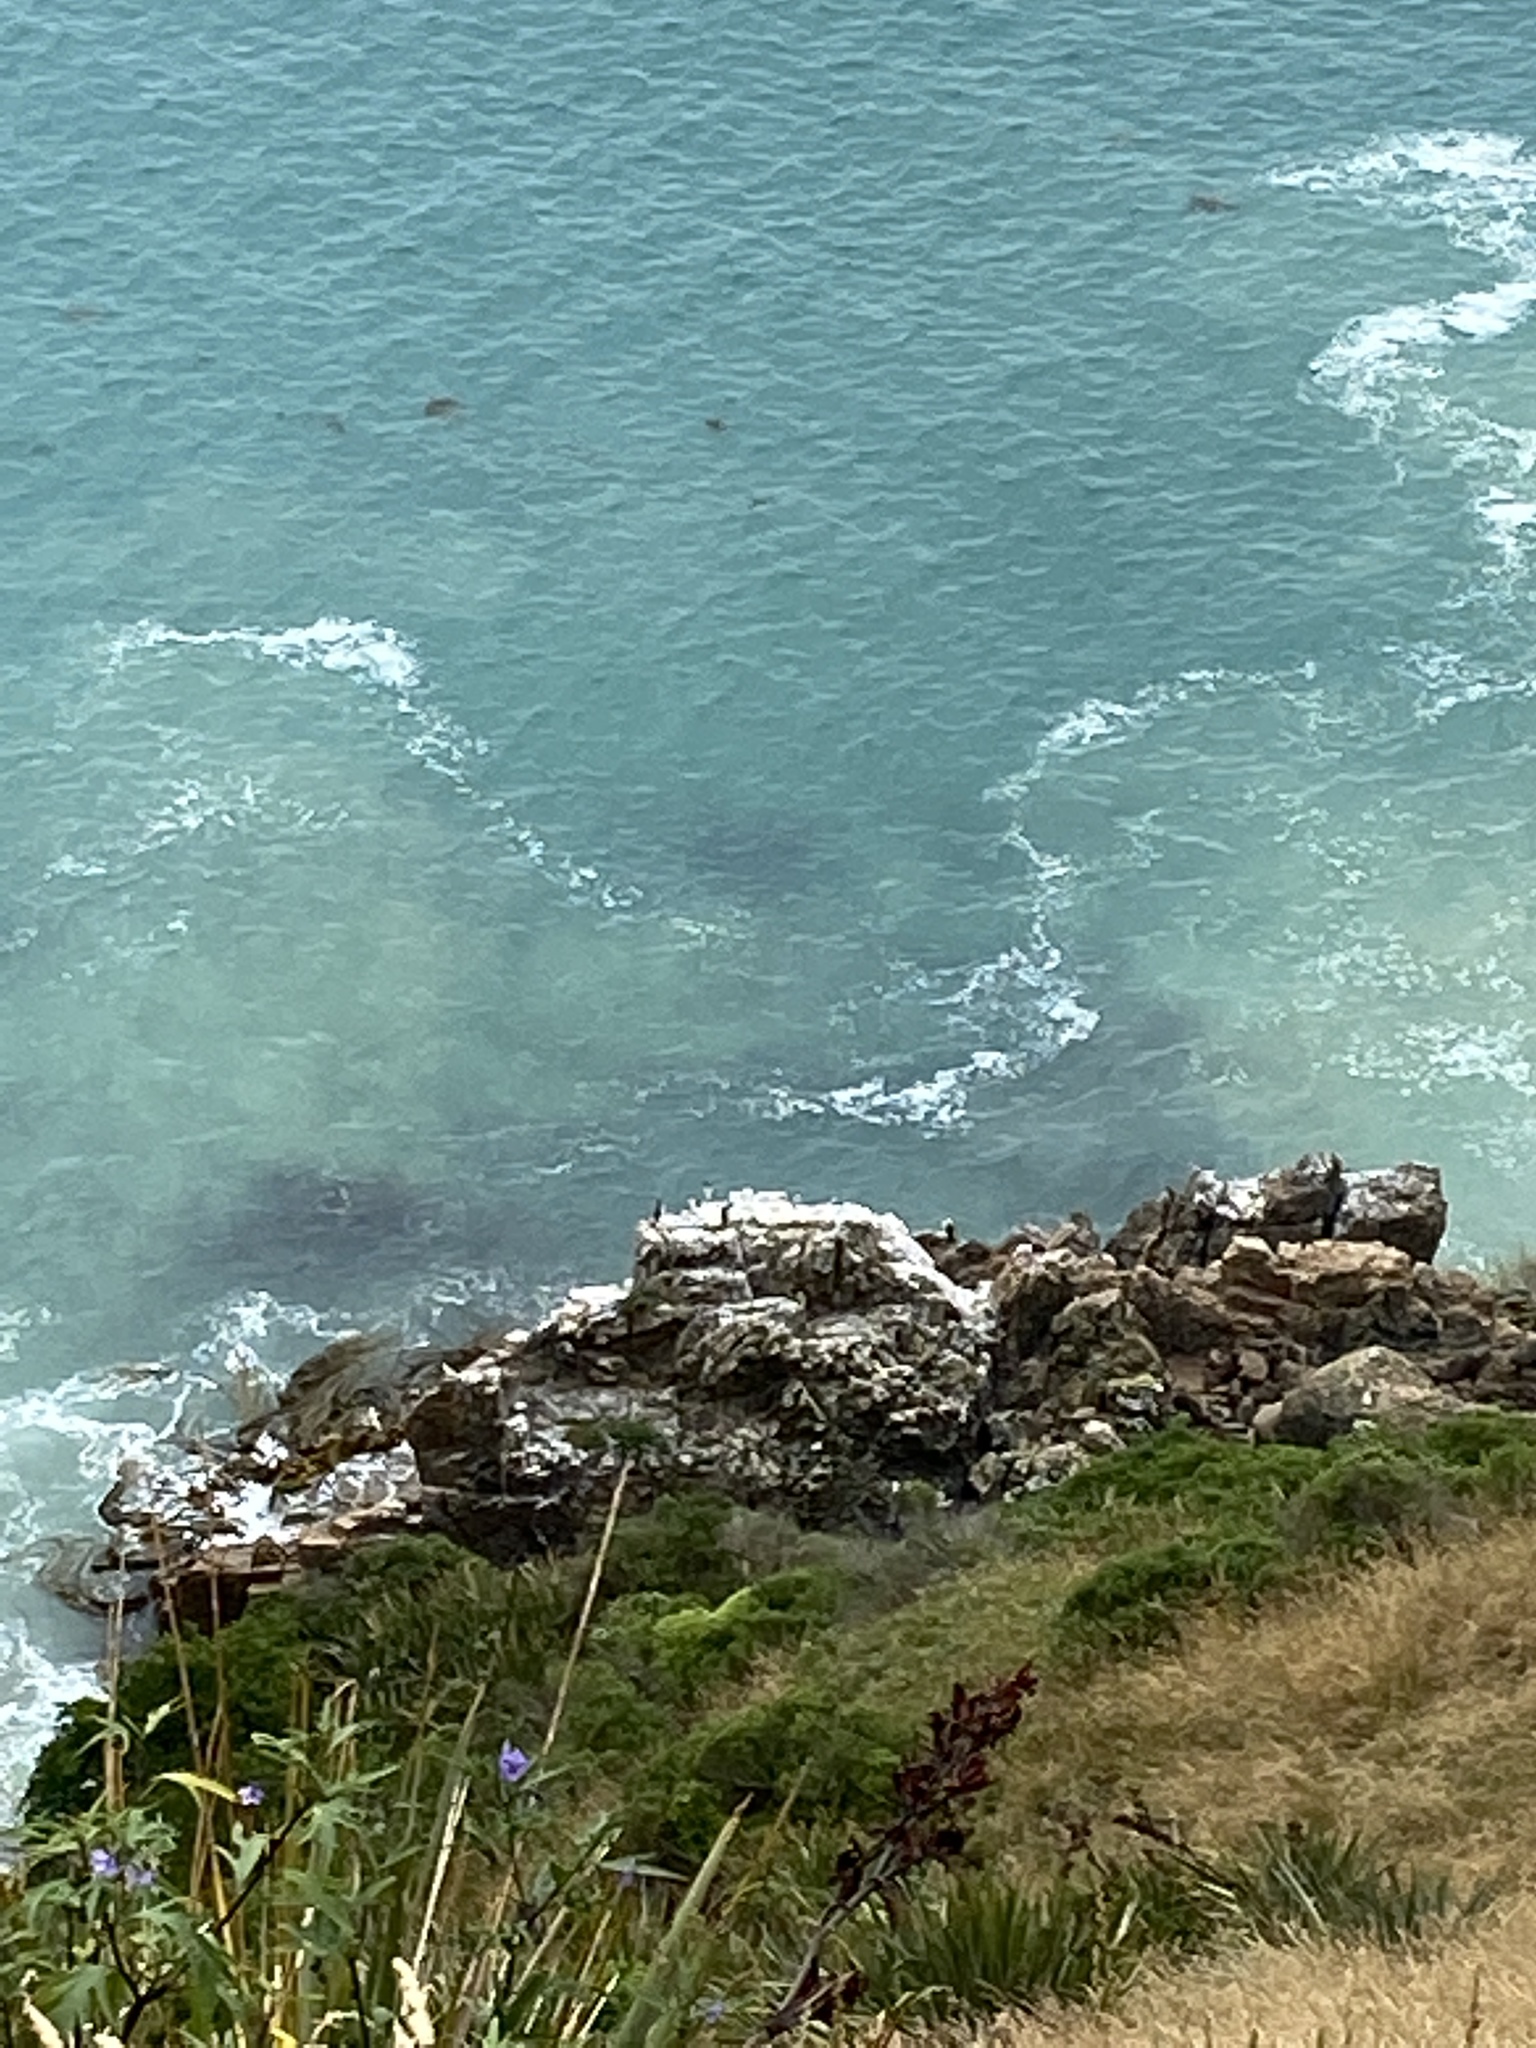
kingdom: Animalia
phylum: Chordata
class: Aves
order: Suliformes
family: Phalacrocoracidae
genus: Phalacrocorax
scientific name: Phalacrocorax punctatus
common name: Spotted shag
